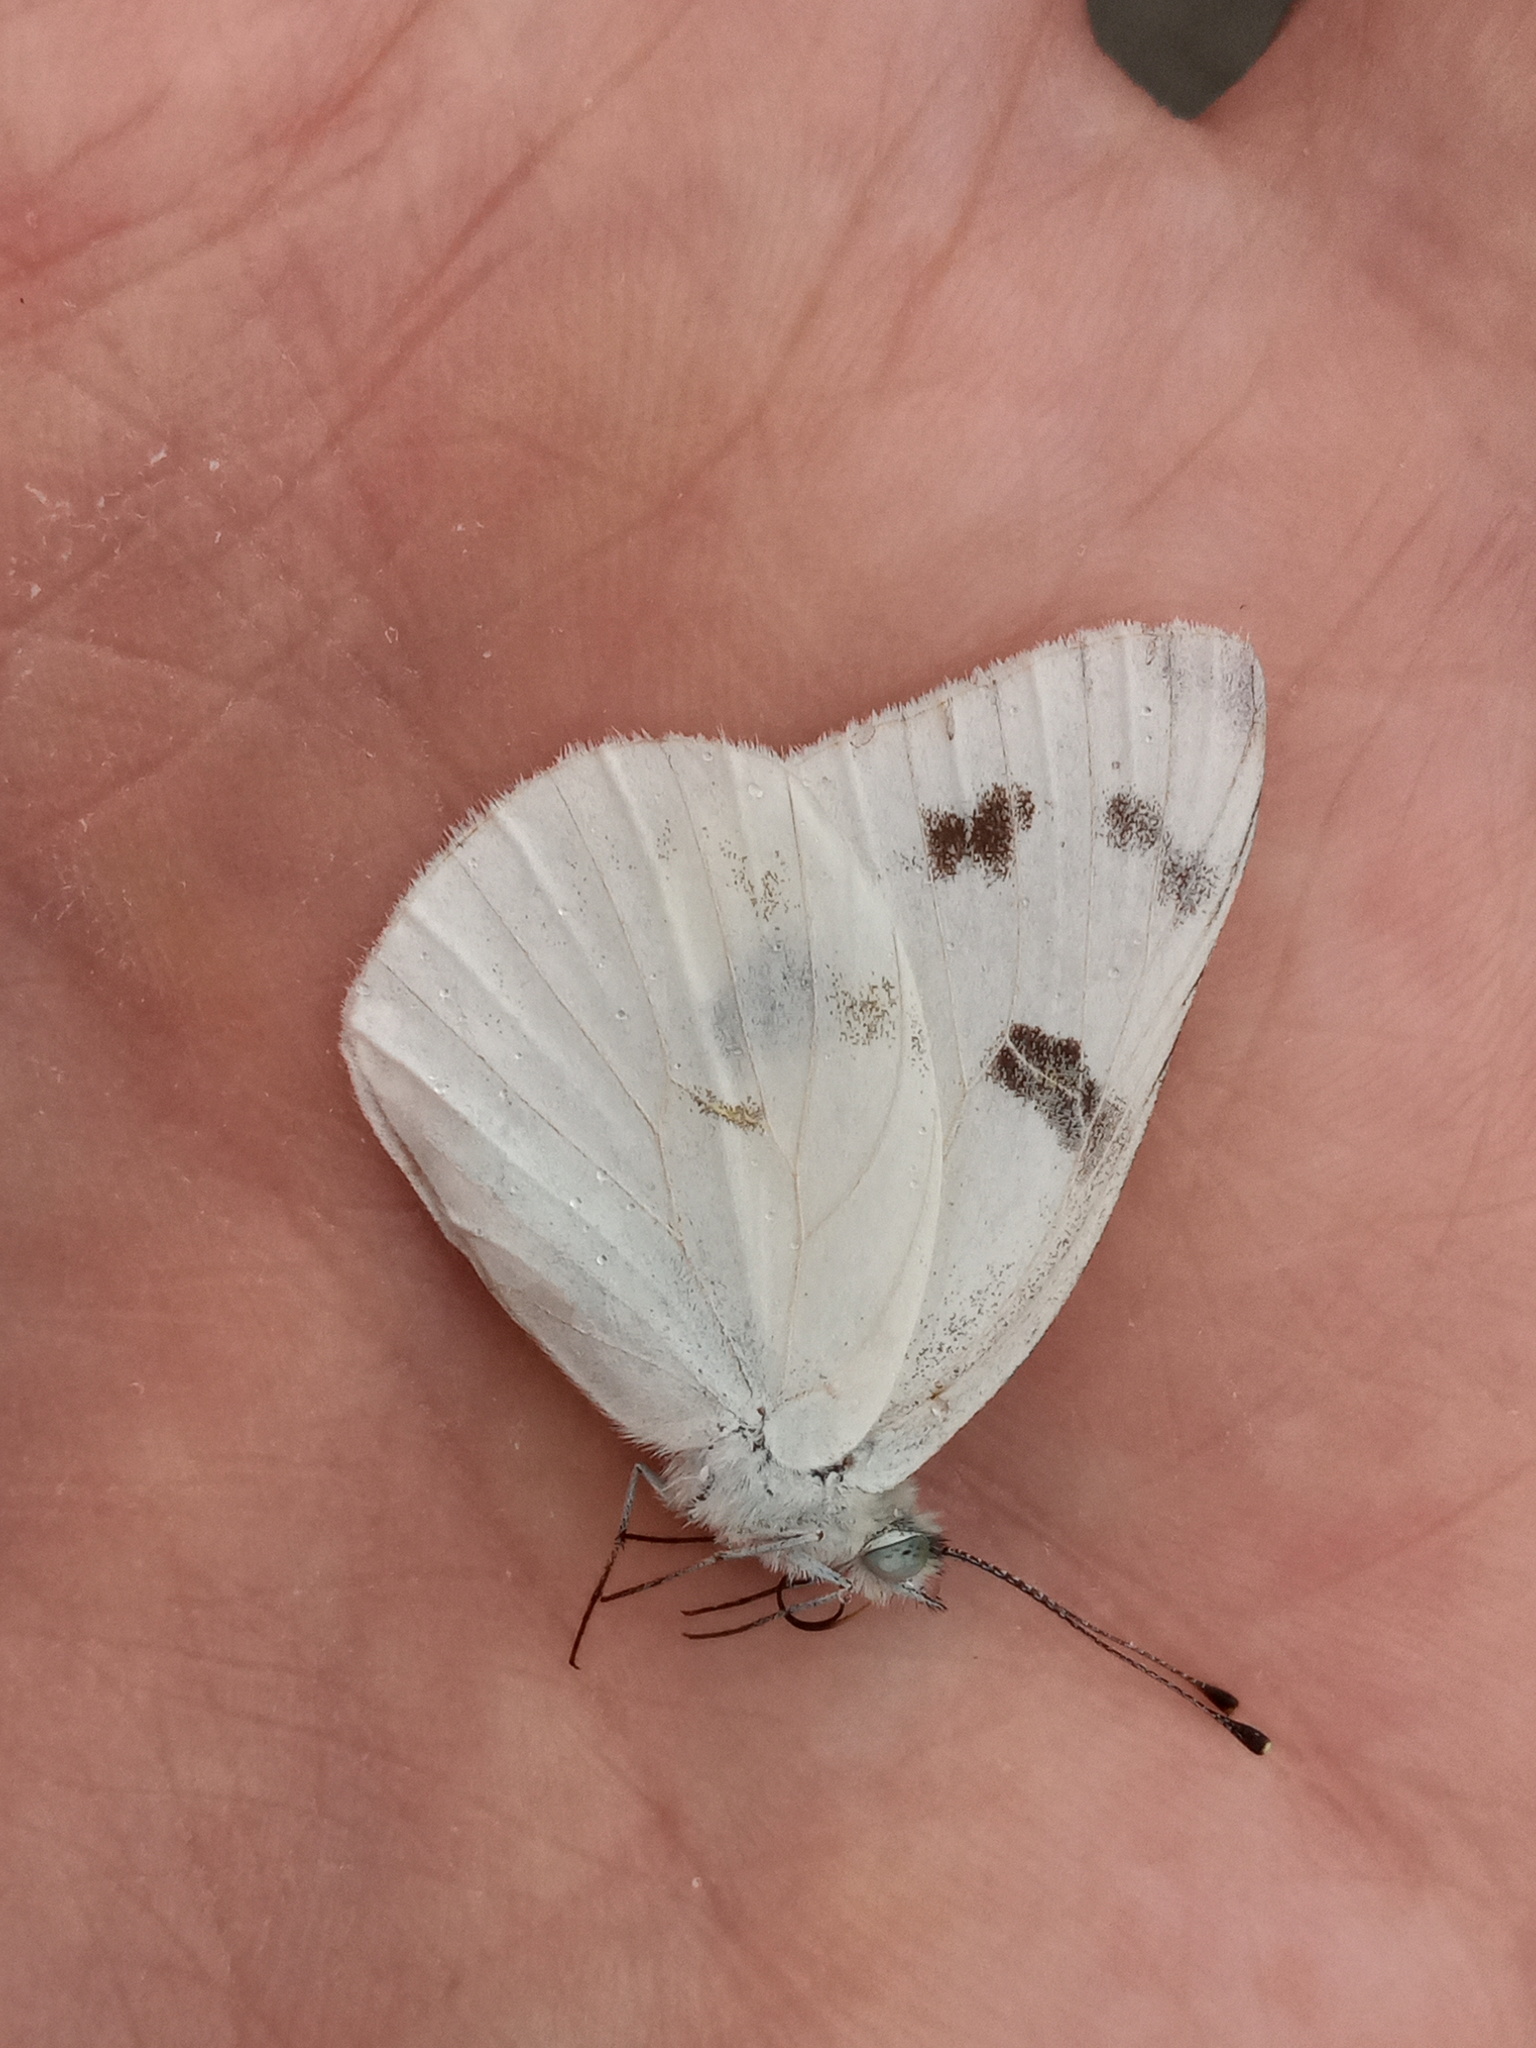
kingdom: Animalia
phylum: Arthropoda
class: Insecta
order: Lepidoptera
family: Pieridae
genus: Pontia
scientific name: Pontia protodice
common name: Checkered white
